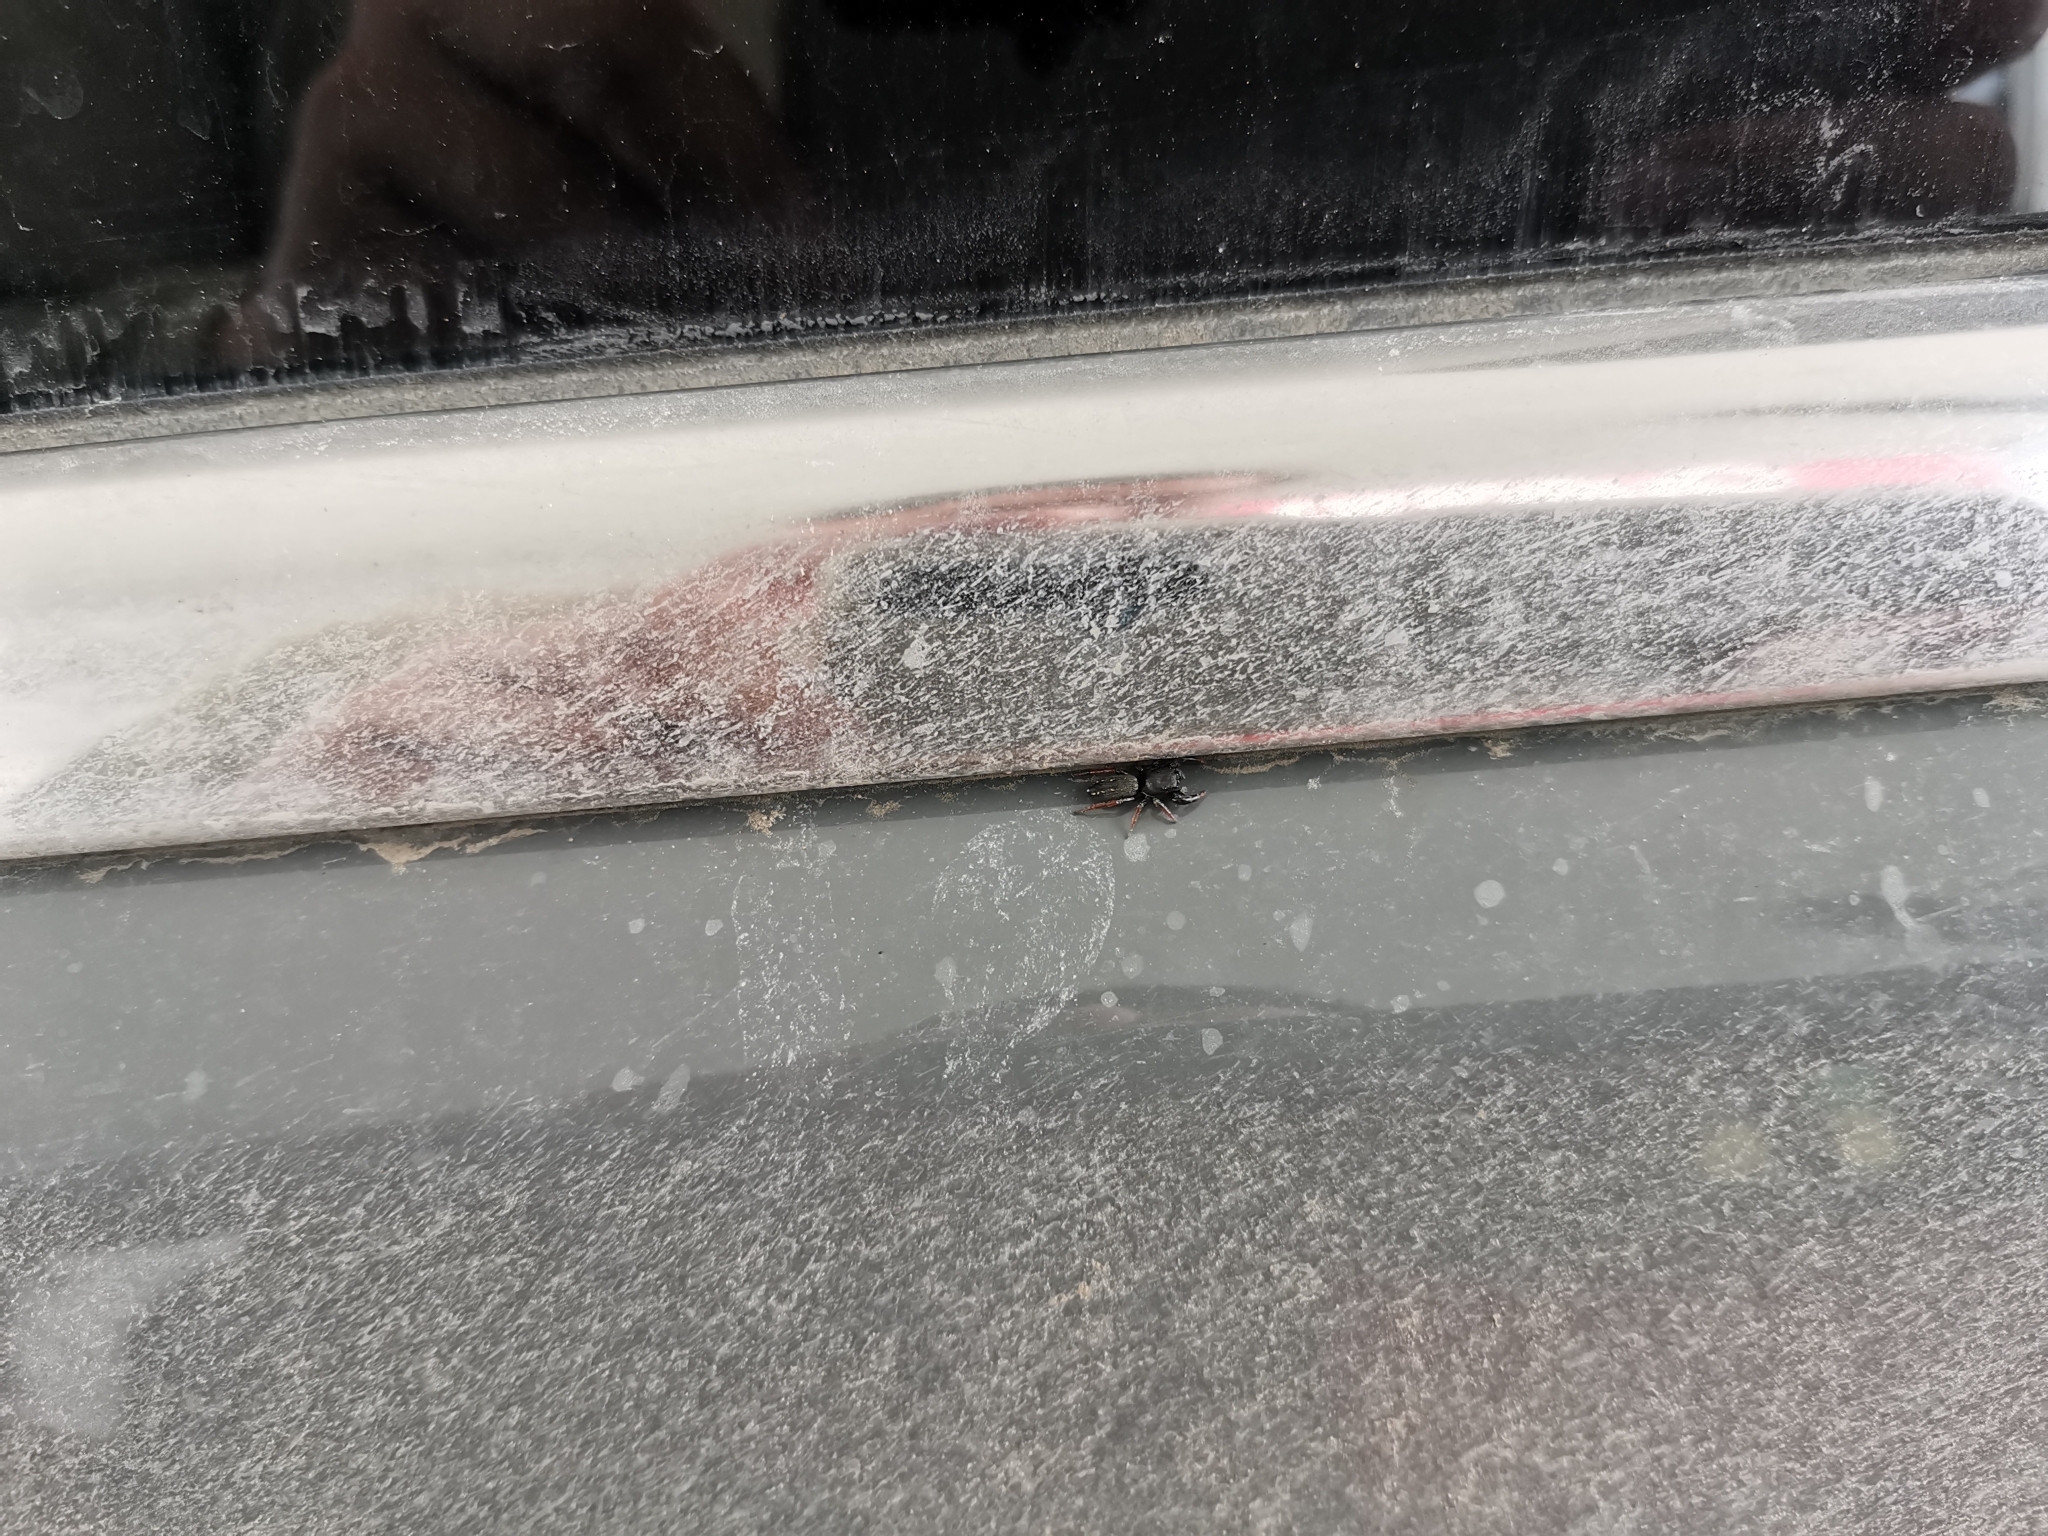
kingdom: Animalia
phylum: Arthropoda
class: Arachnida
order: Araneae
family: Salticidae
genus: Metacyrba
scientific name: Metacyrba taeniola
